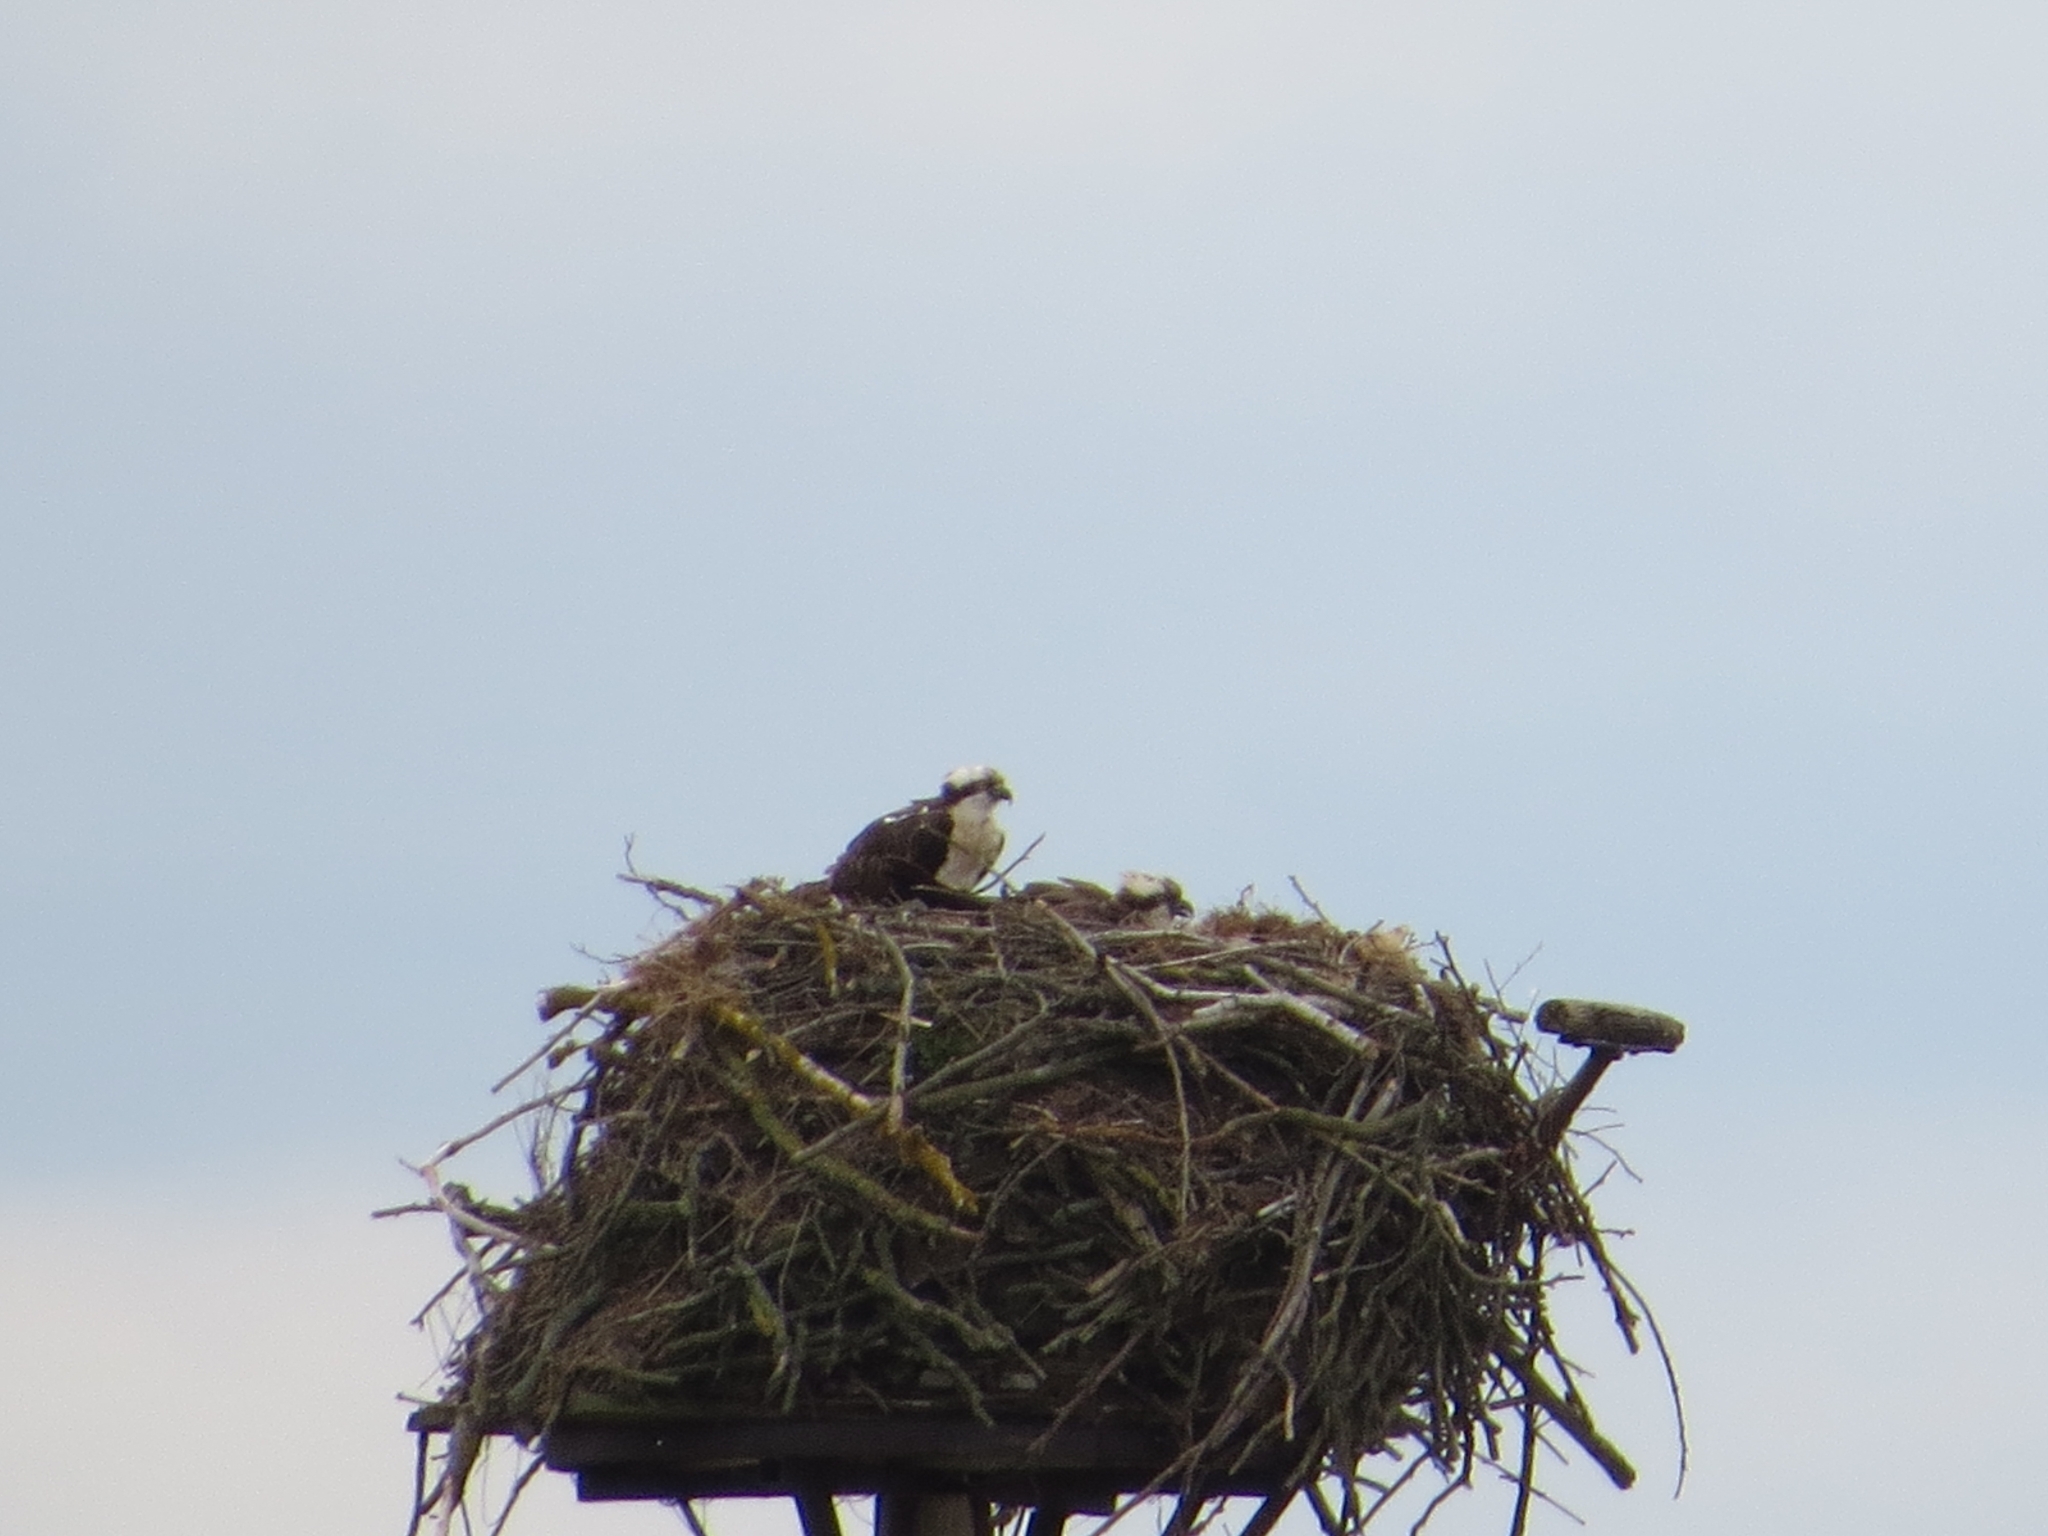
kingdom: Animalia
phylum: Chordata
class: Aves
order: Accipitriformes
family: Pandionidae
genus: Pandion
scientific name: Pandion haliaetus
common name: Osprey
